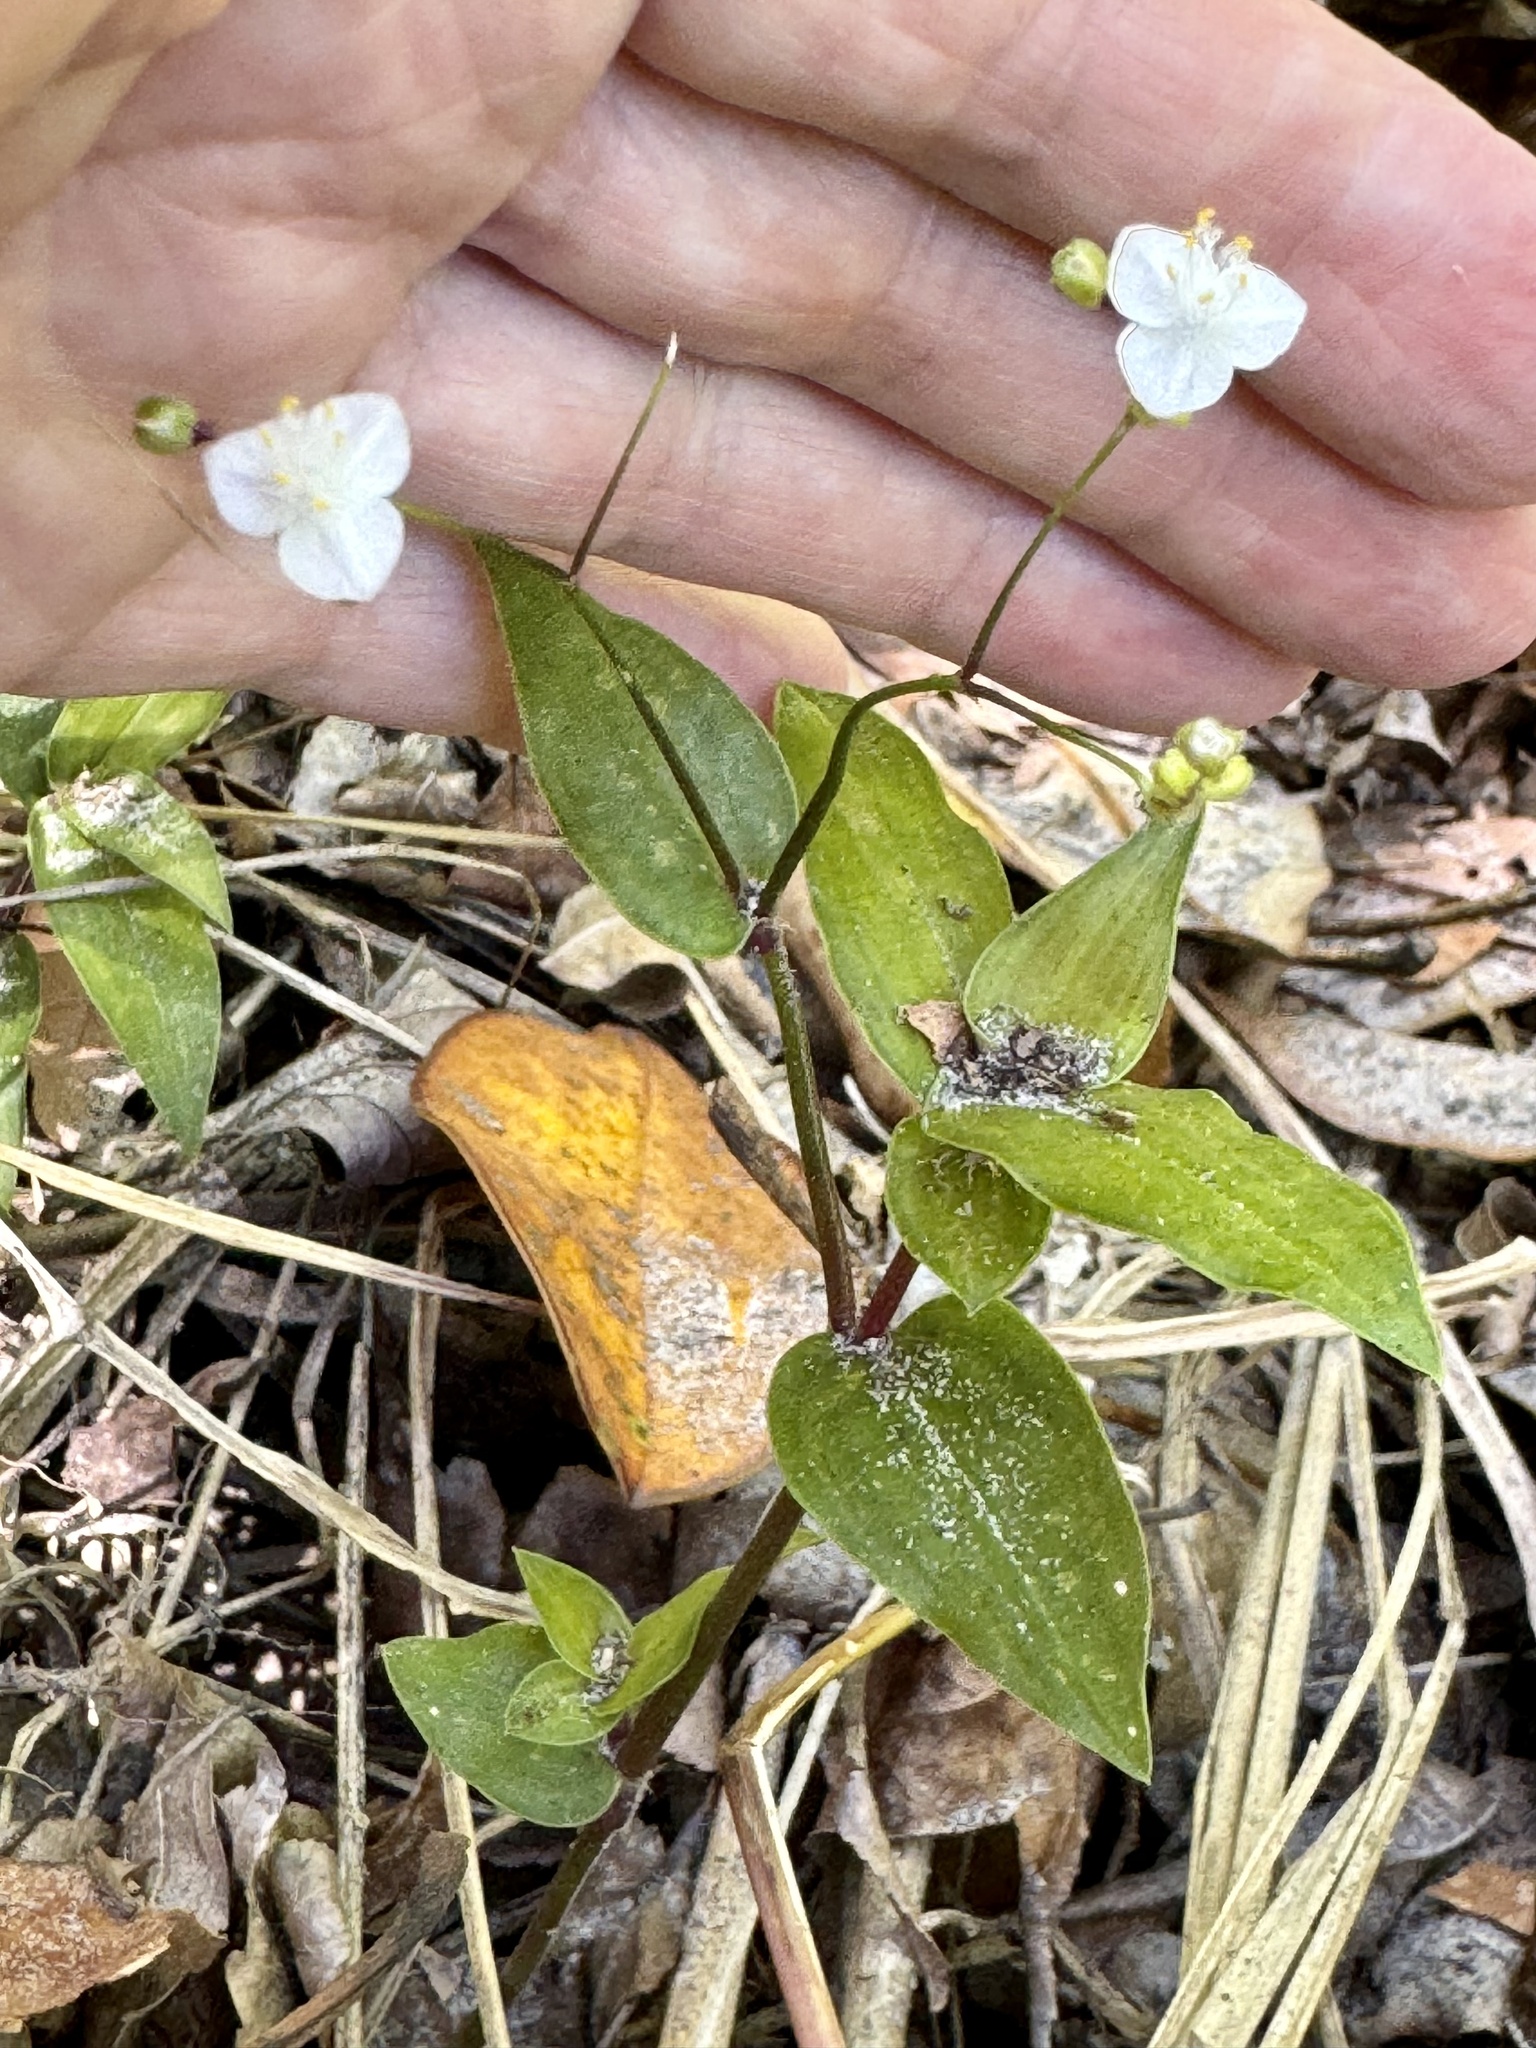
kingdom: Plantae
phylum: Tracheophyta
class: Liliopsida
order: Commelinales
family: Commelinaceae
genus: Gibasis
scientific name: Gibasis pellucida
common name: Dotted bridalveil
